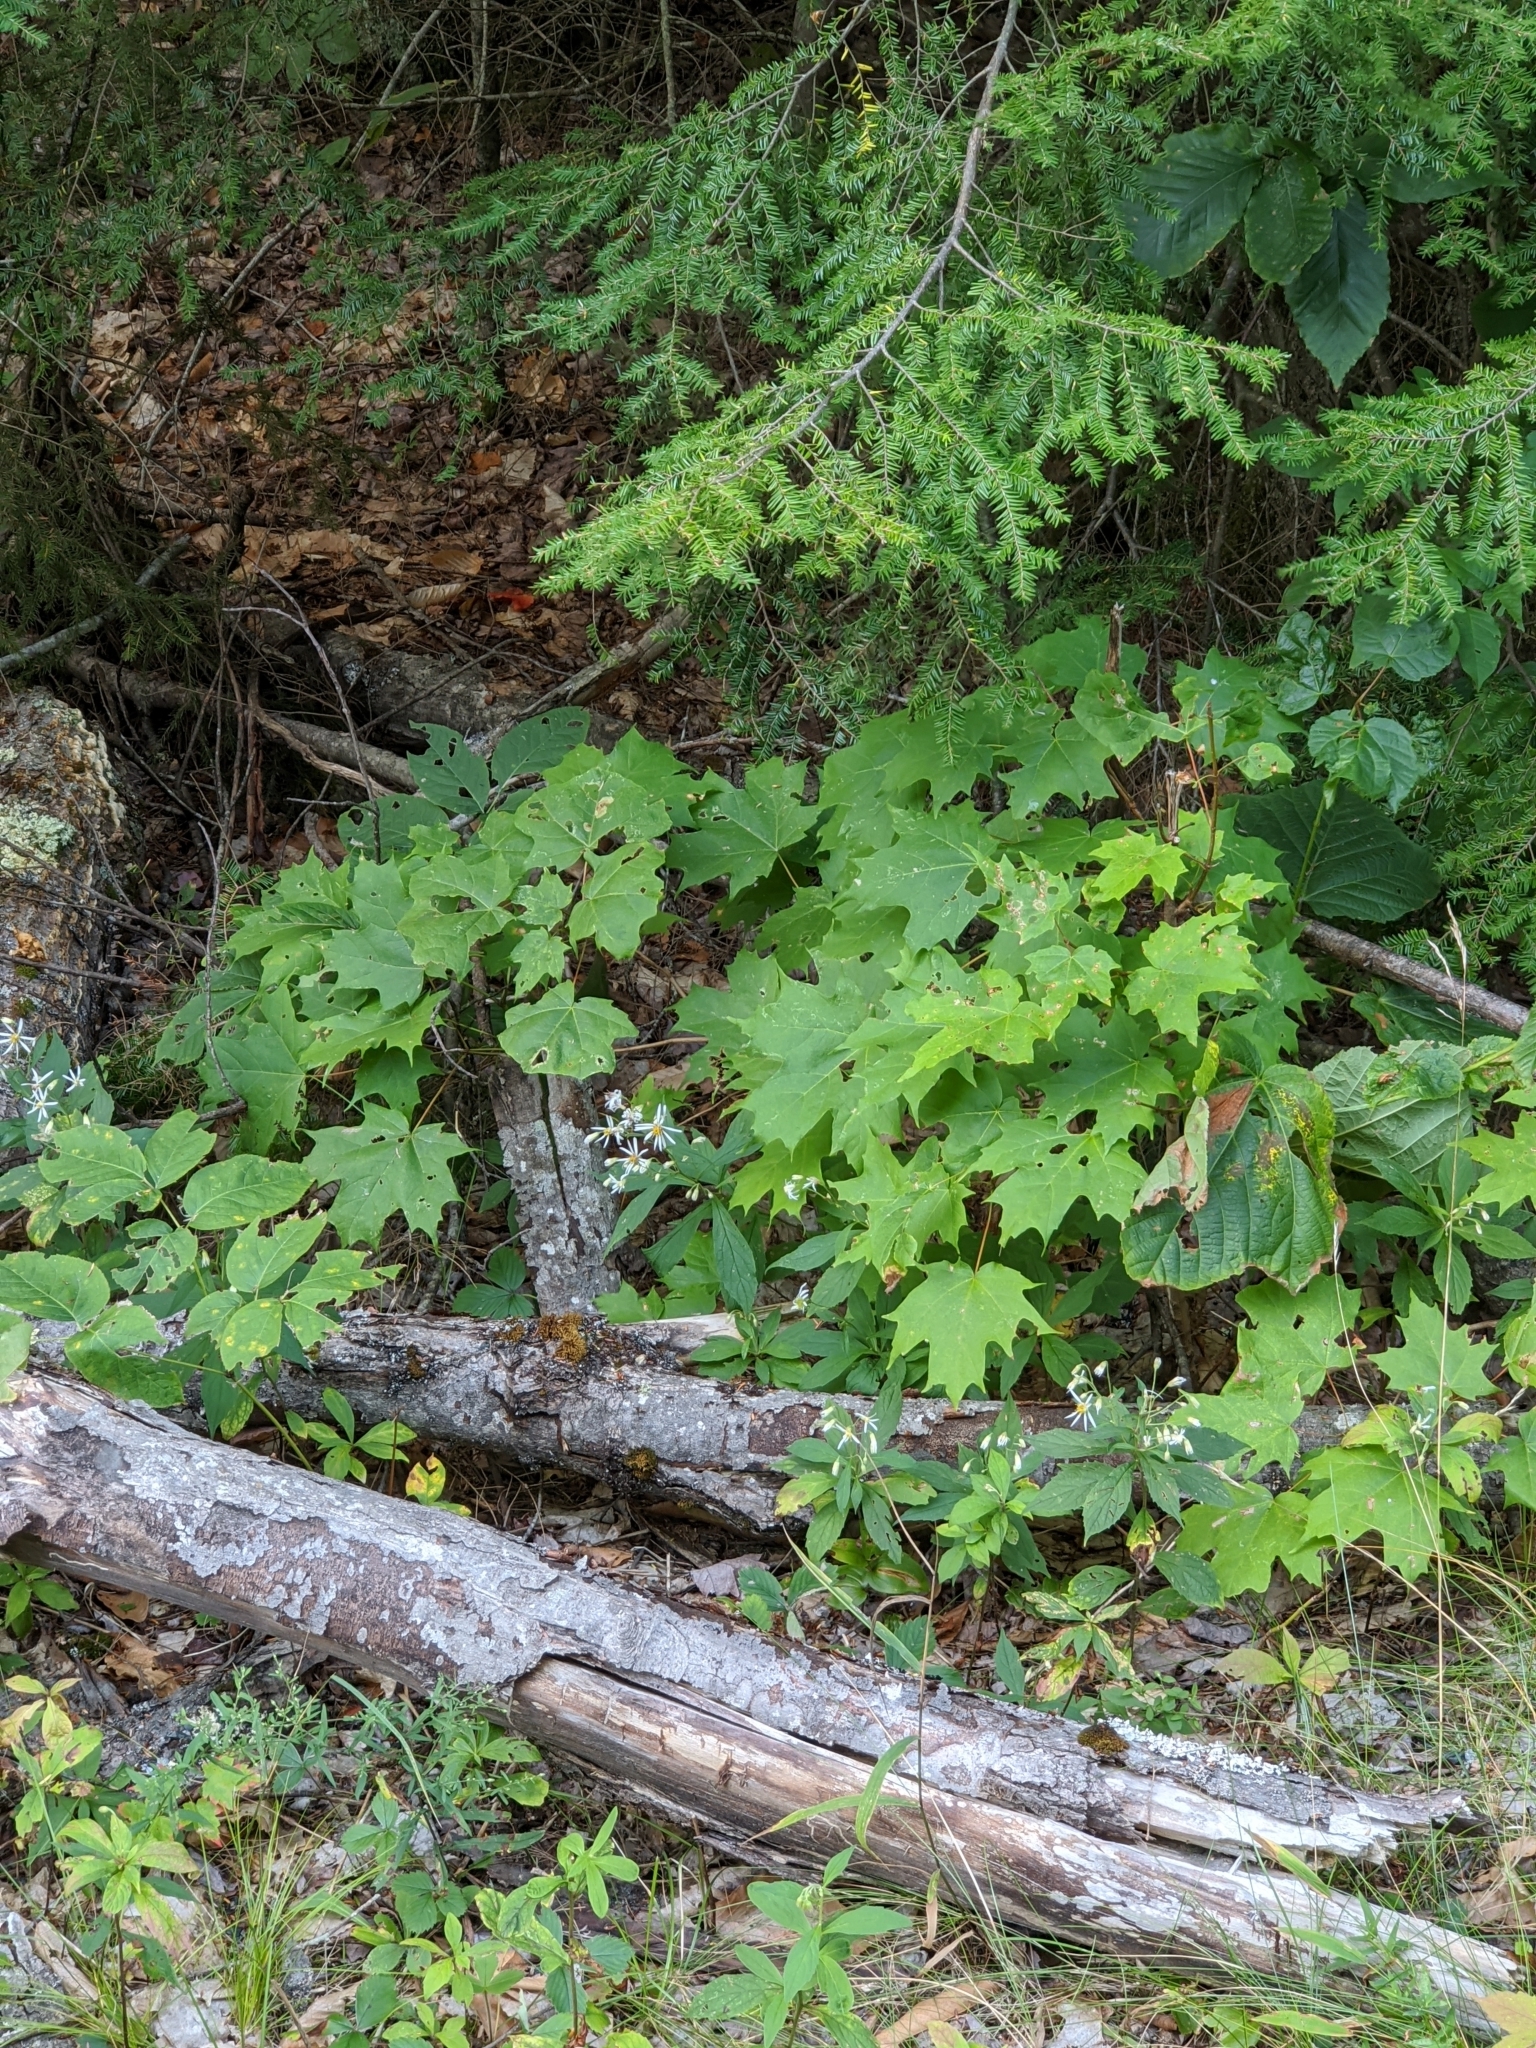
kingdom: Plantae
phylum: Tracheophyta
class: Magnoliopsida
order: Sapindales
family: Sapindaceae
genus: Acer
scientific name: Acer saccharum
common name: Sugar maple
